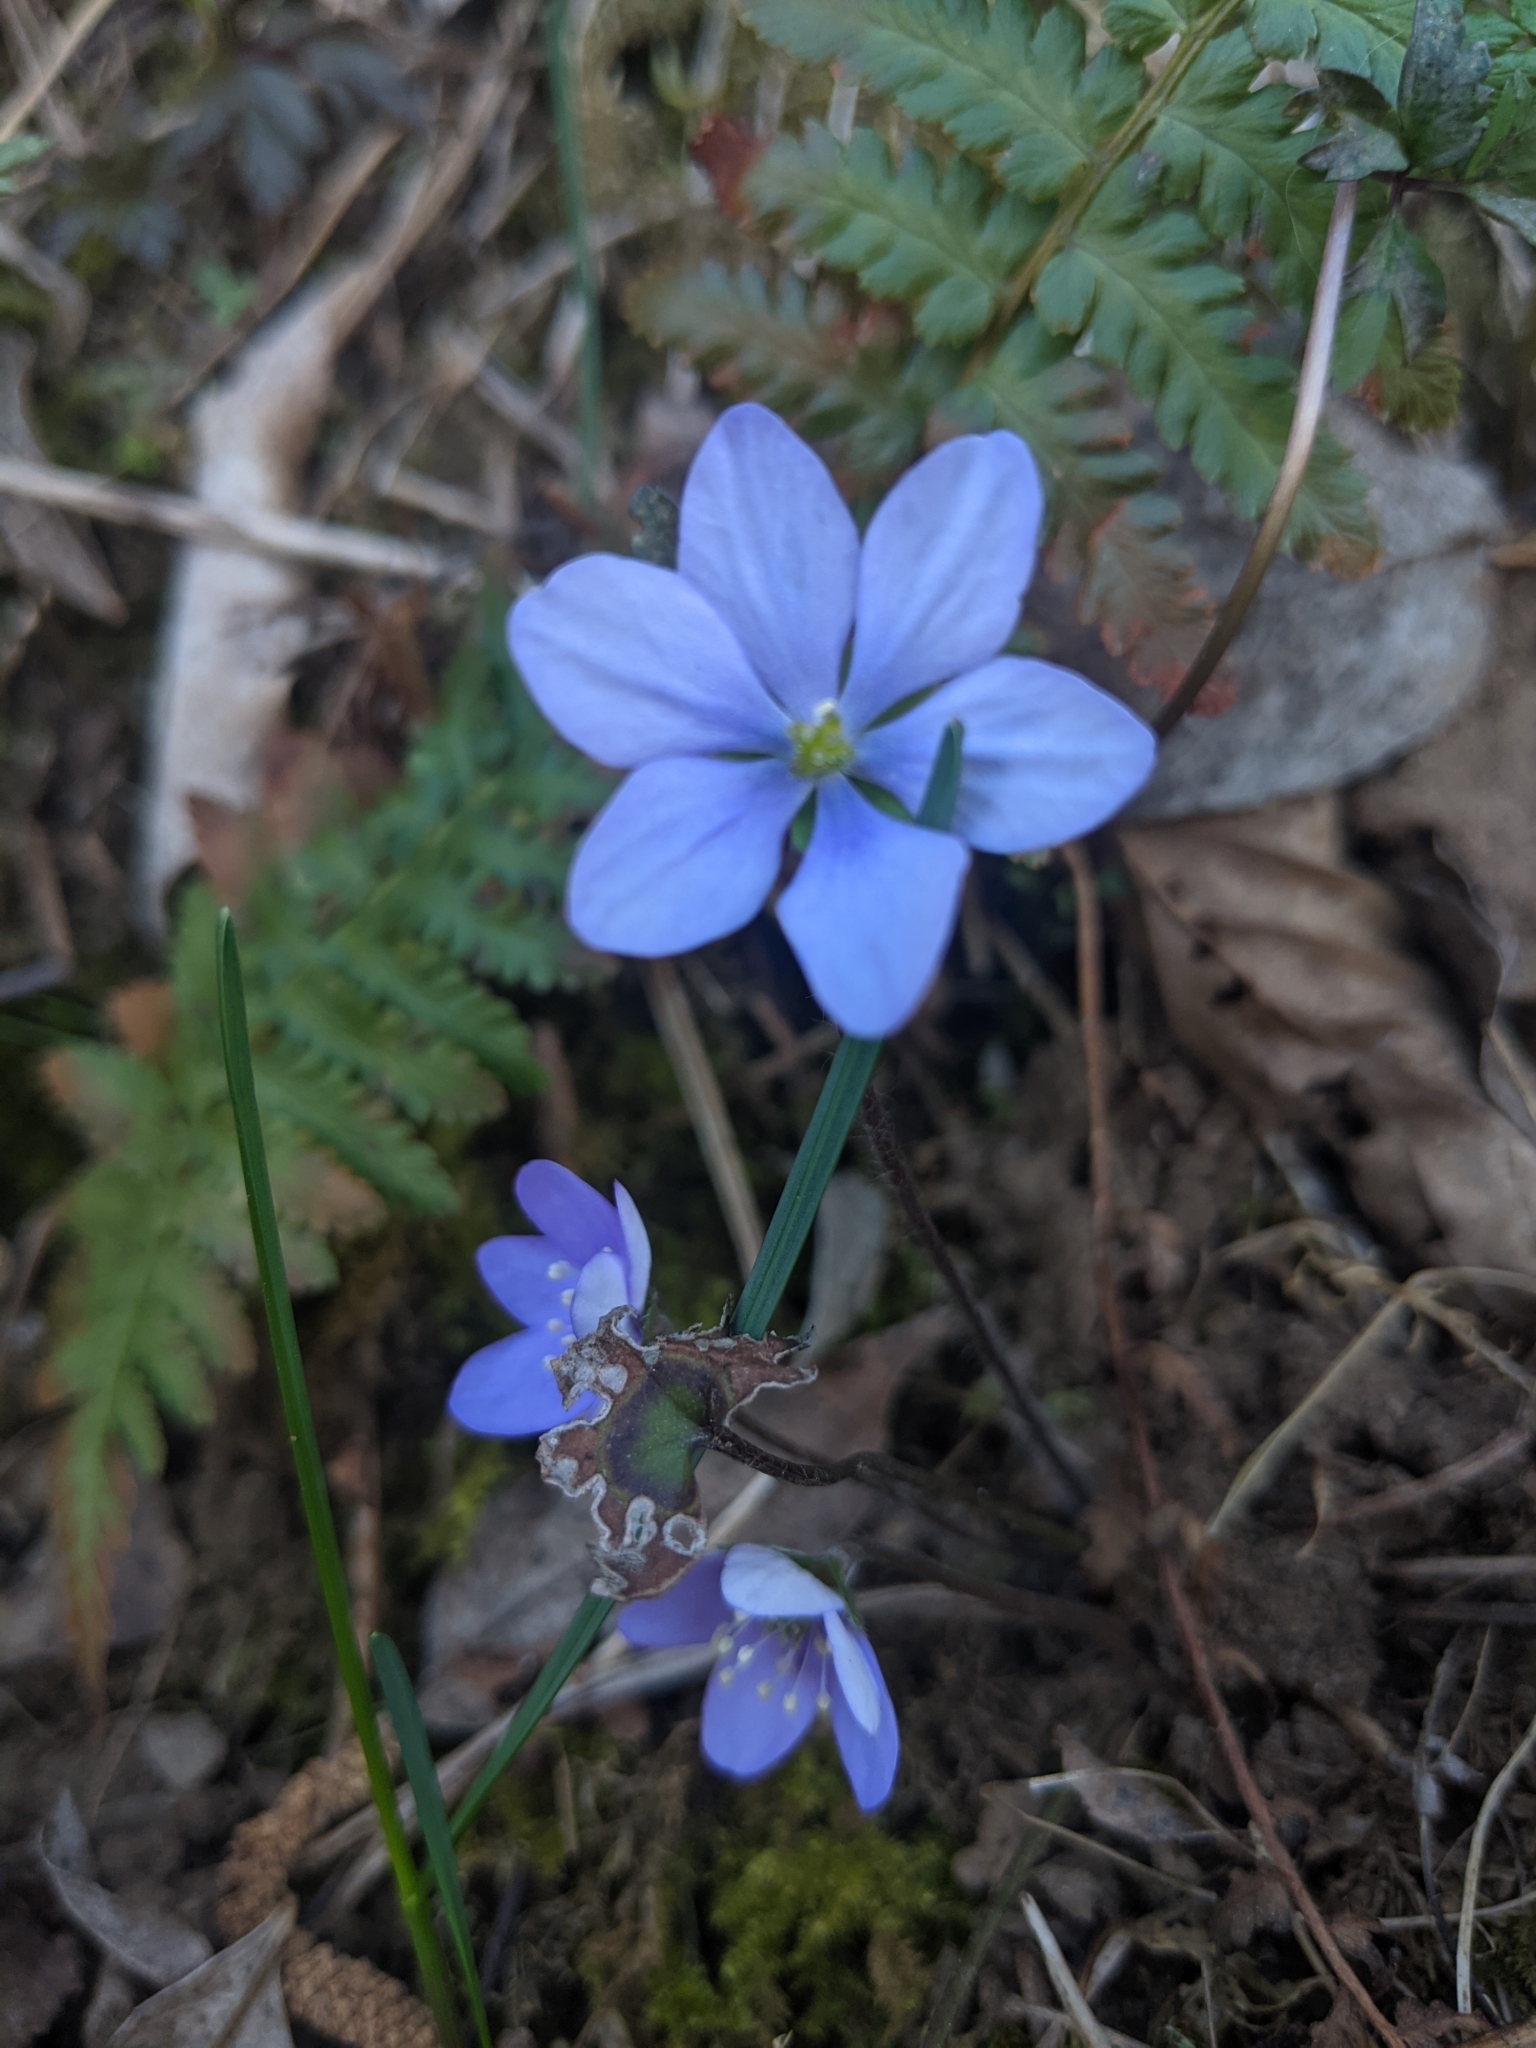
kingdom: Plantae
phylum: Tracheophyta
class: Magnoliopsida
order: Ranunculales
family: Ranunculaceae
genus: Hepatica
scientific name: Hepatica nobilis
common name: Liverleaf
